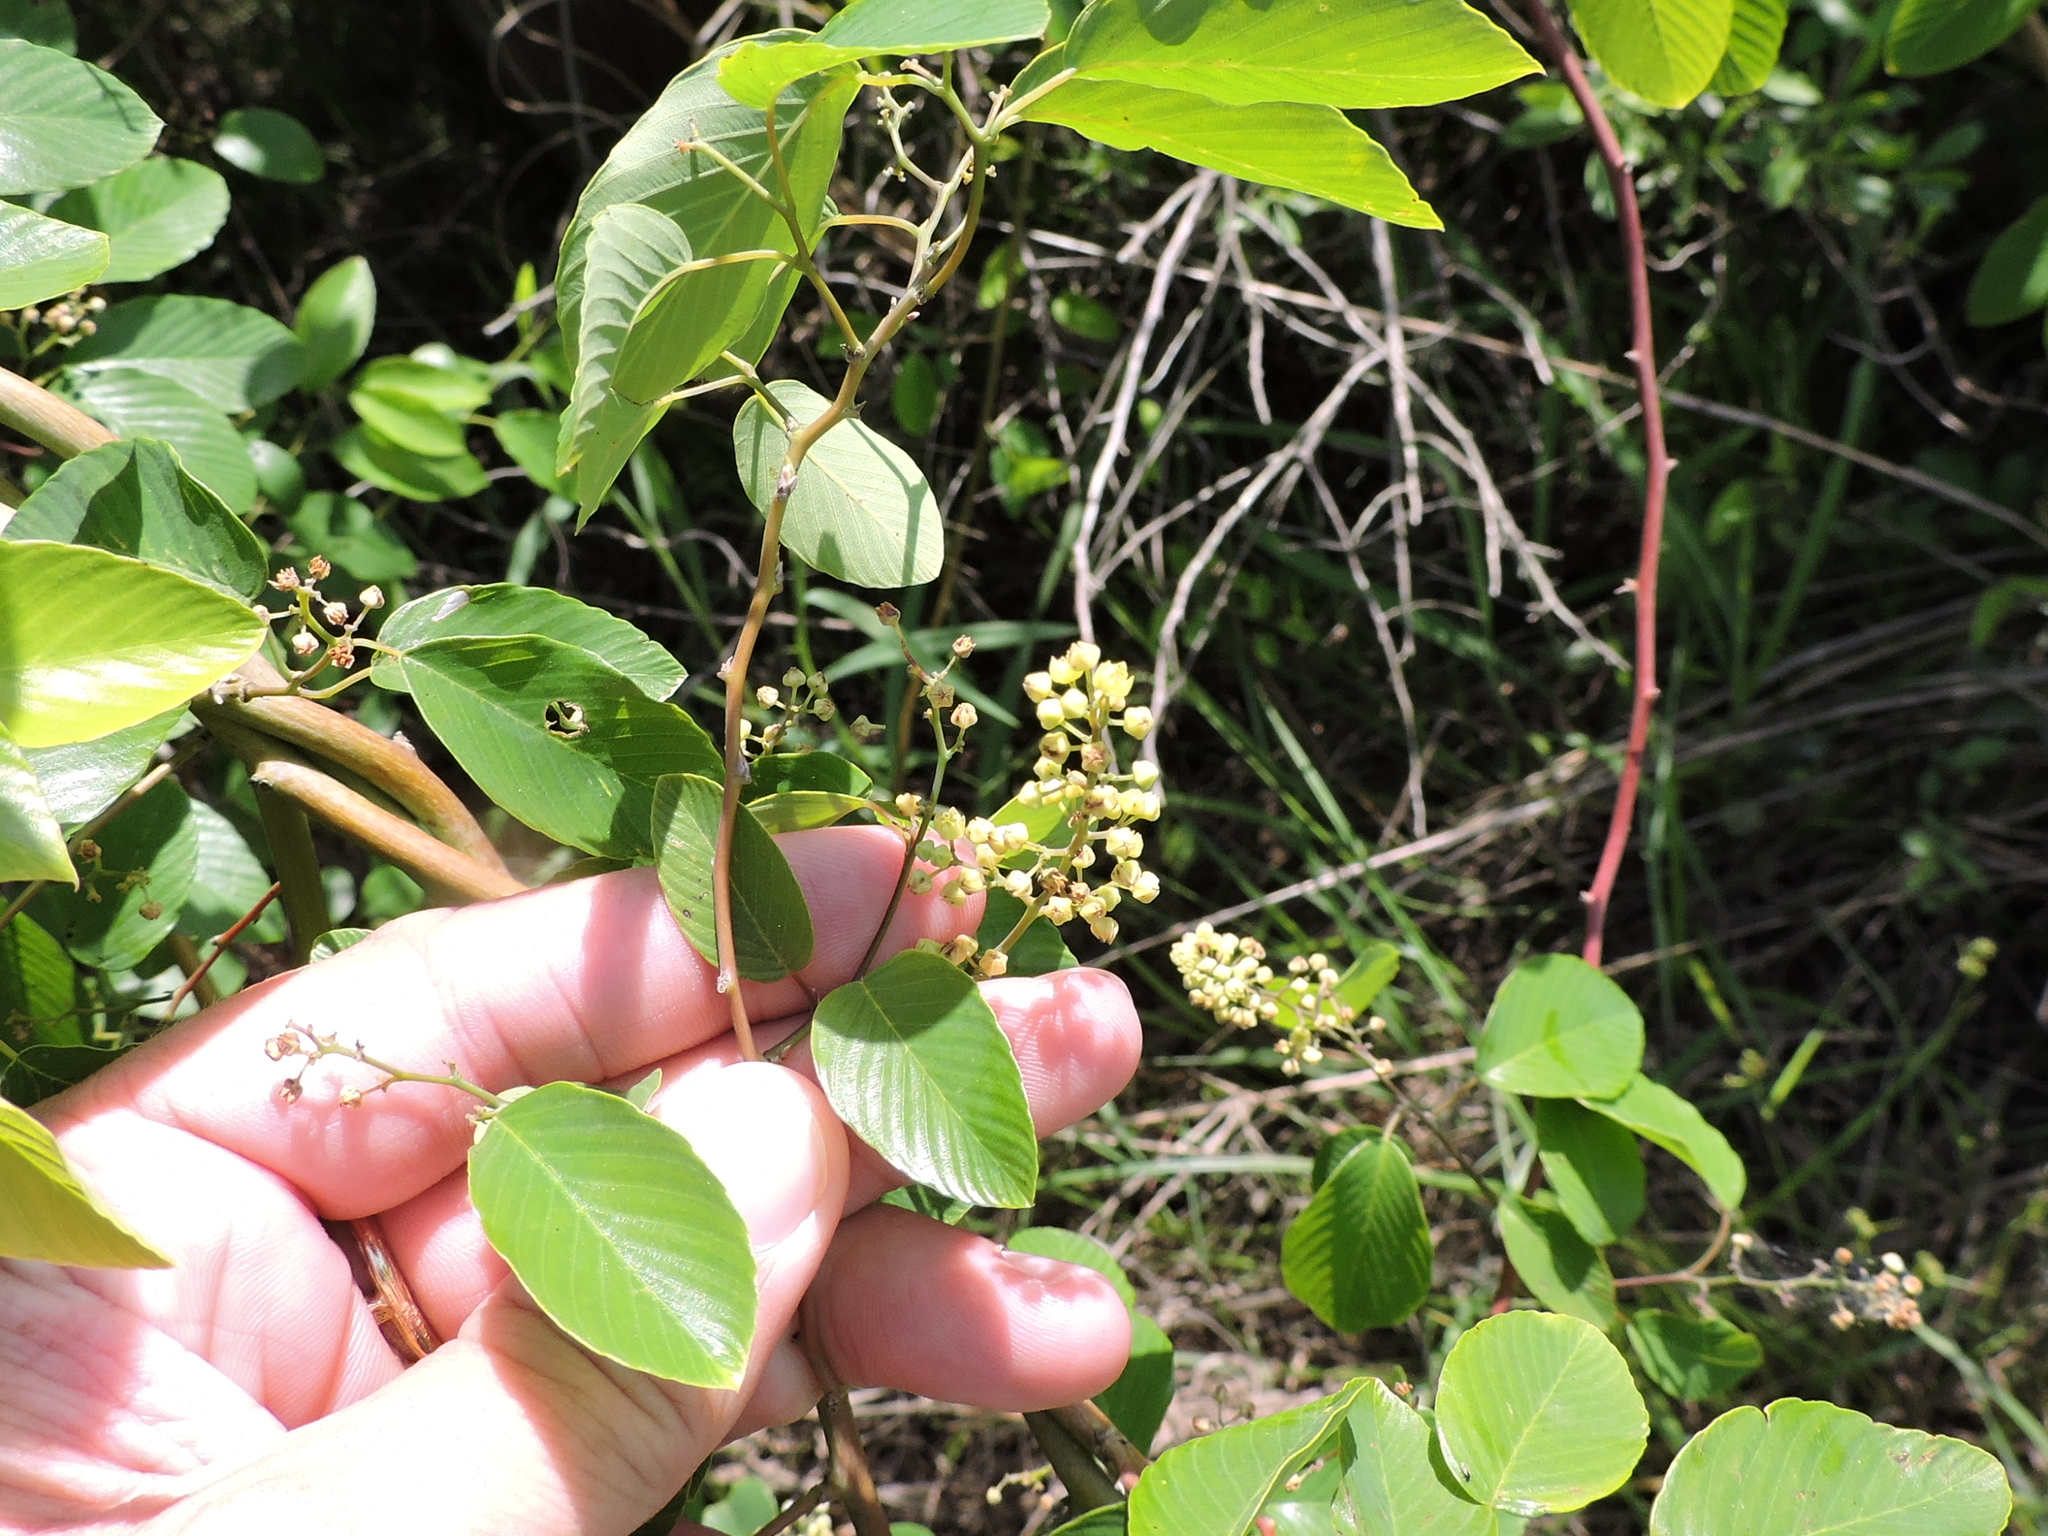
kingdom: Plantae
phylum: Tracheophyta
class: Magnoliopsida
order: Rosales
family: Rhamnaceae
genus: Berchemia
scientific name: Berchemia scandens
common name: Supplejack
